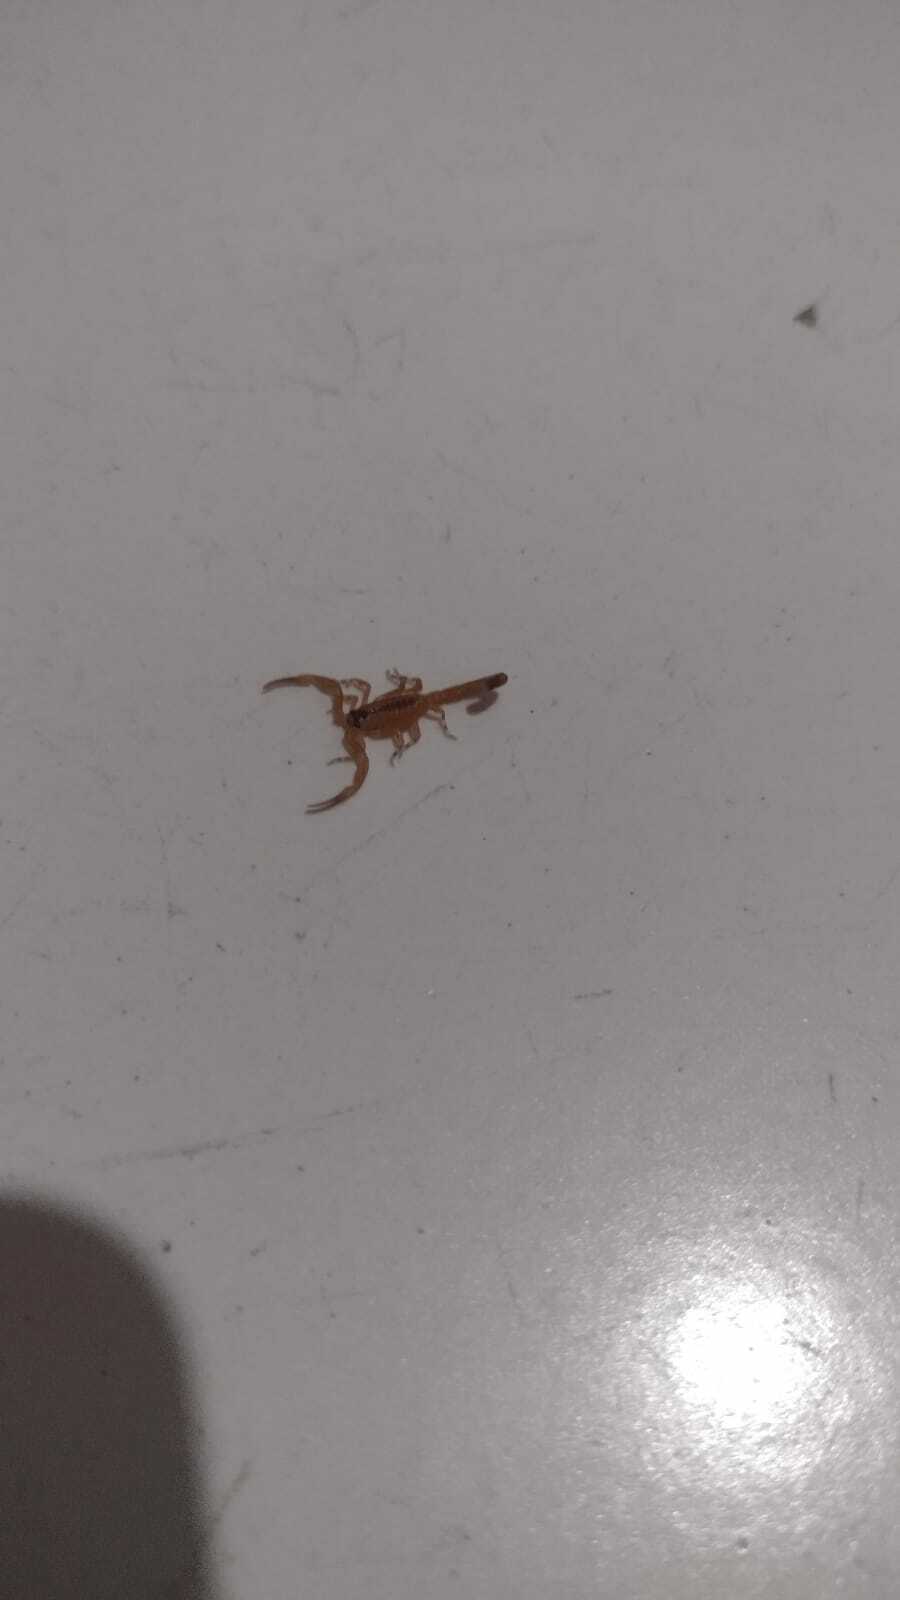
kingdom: Animalia
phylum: Arthropoda
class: Arachnida
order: Scorpiones
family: Buthidae
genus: Tityus
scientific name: Tityus stigmurus
